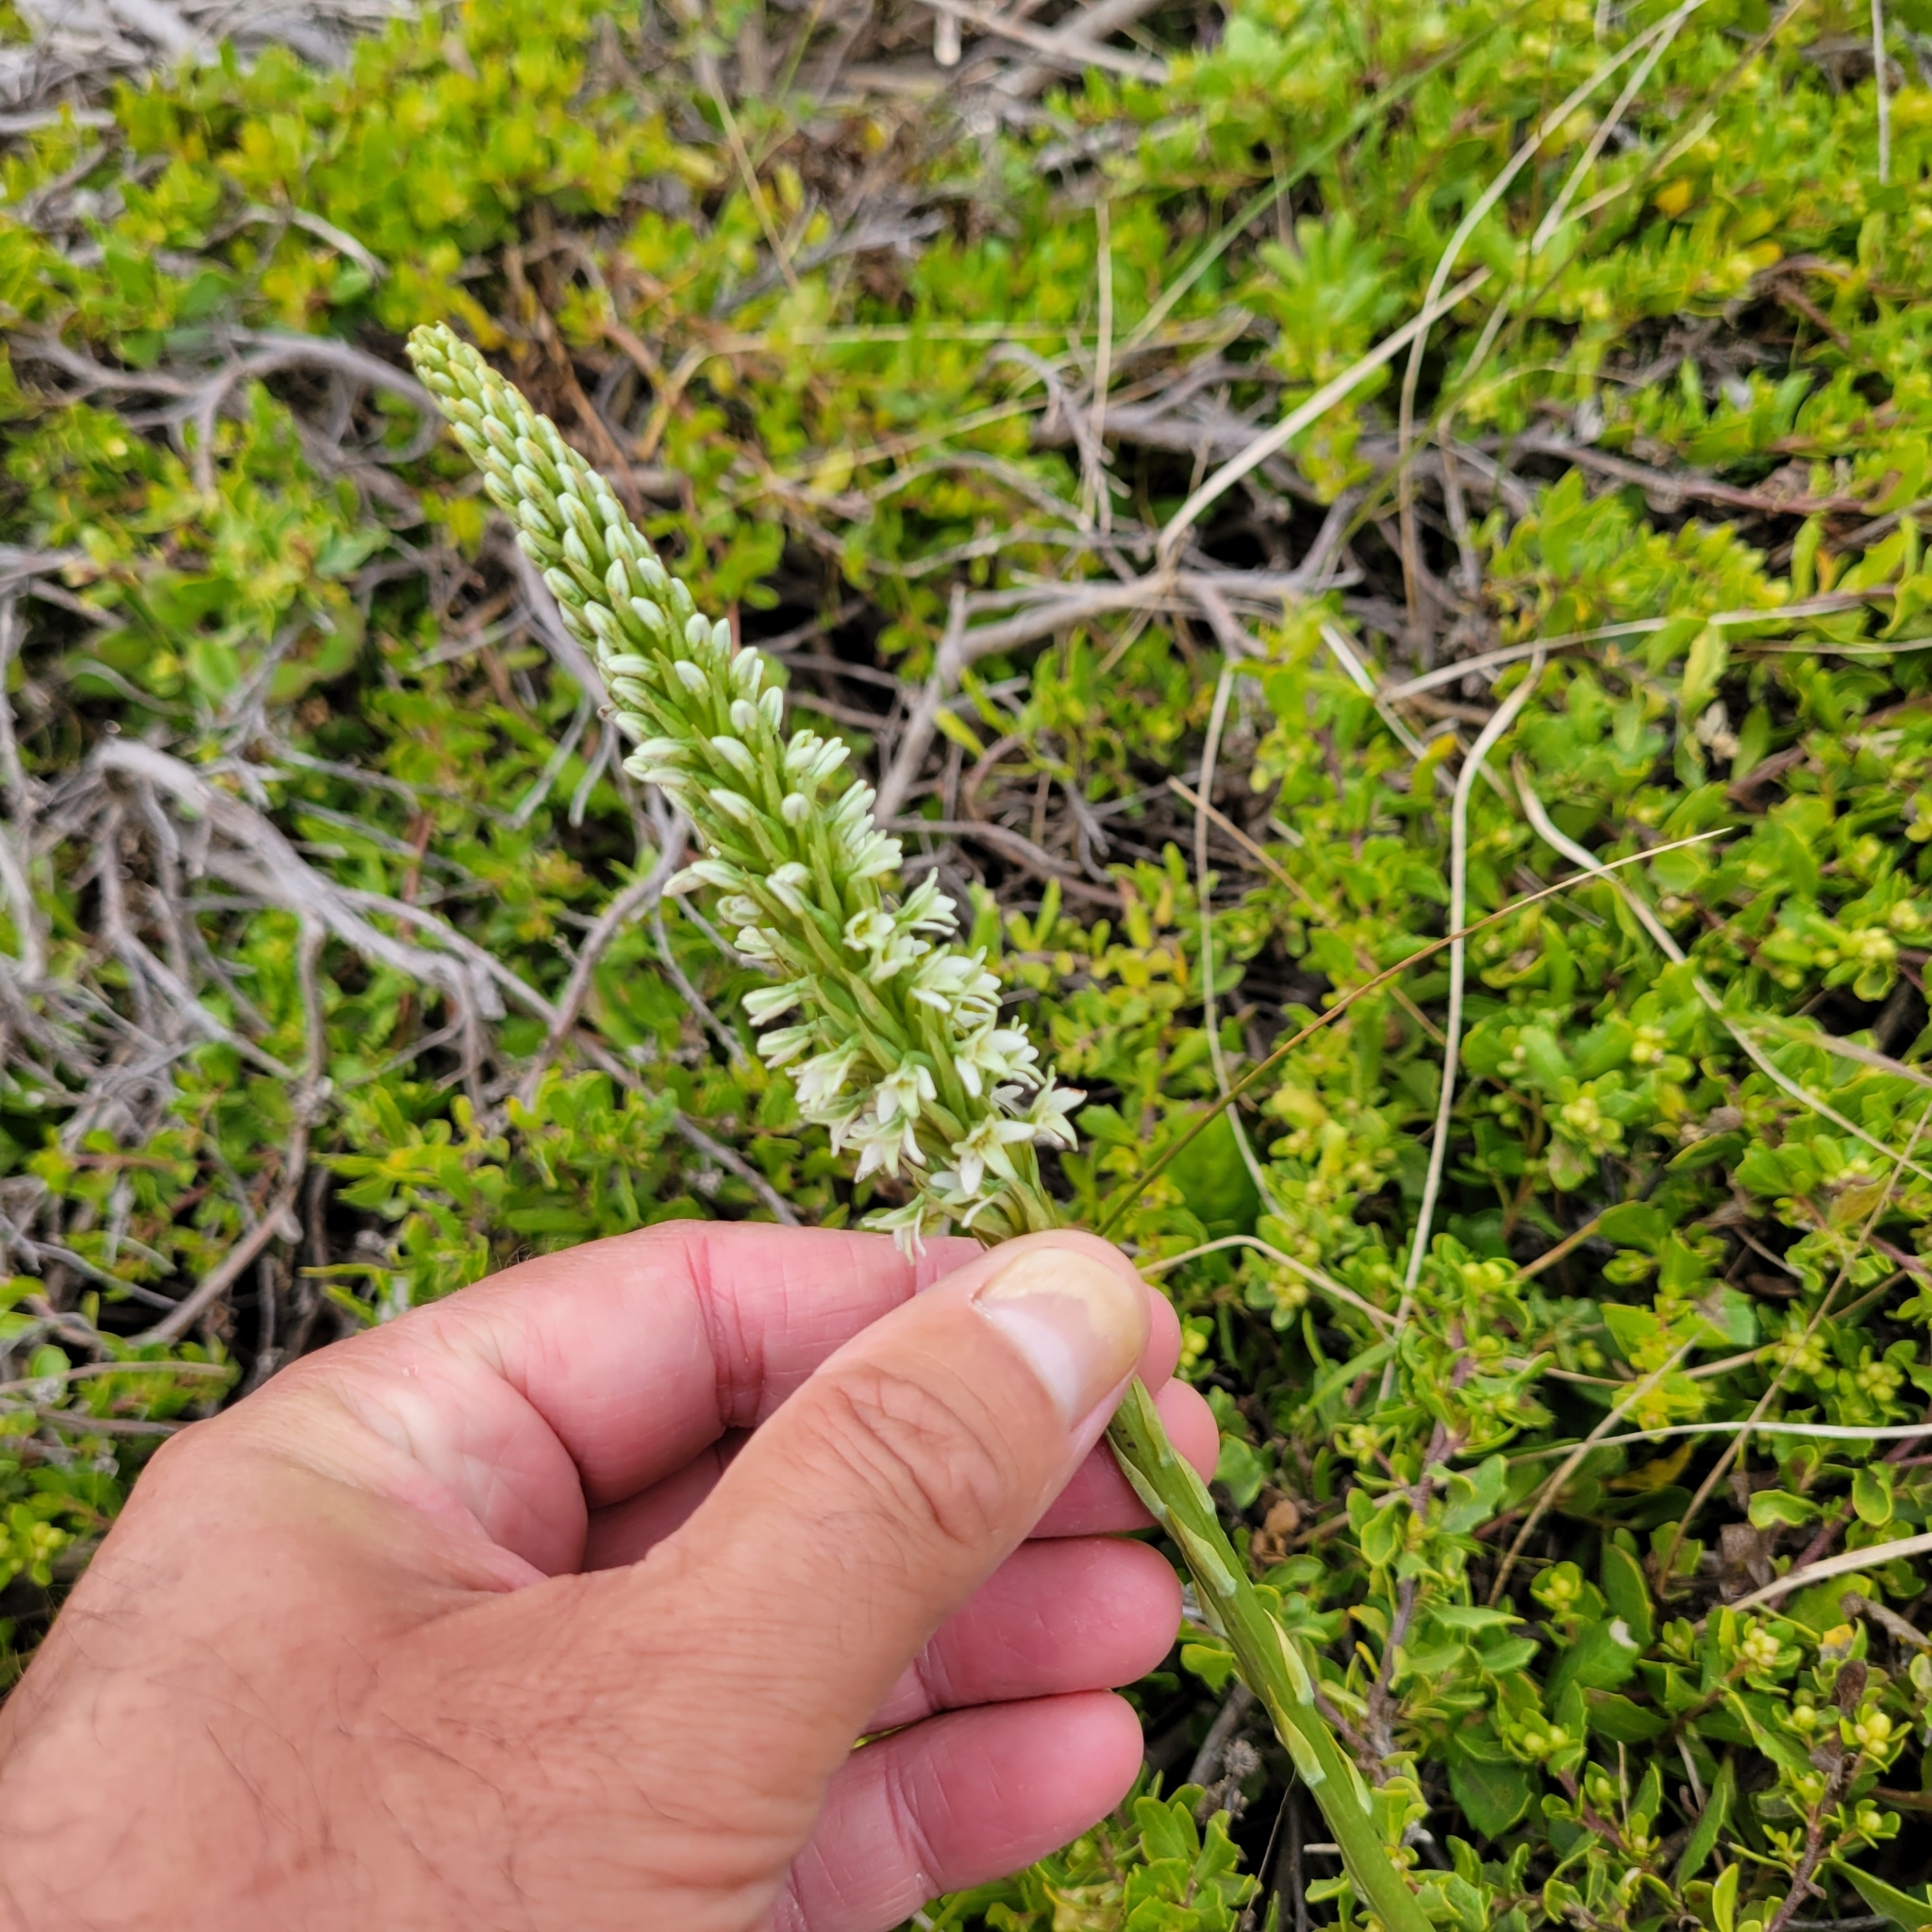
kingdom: Plantae
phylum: Tracheophyta
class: Liliopsida
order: Asparagales
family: Orchidaceae
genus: Platanthera
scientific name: Platanthera elegans
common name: Coast piperia
